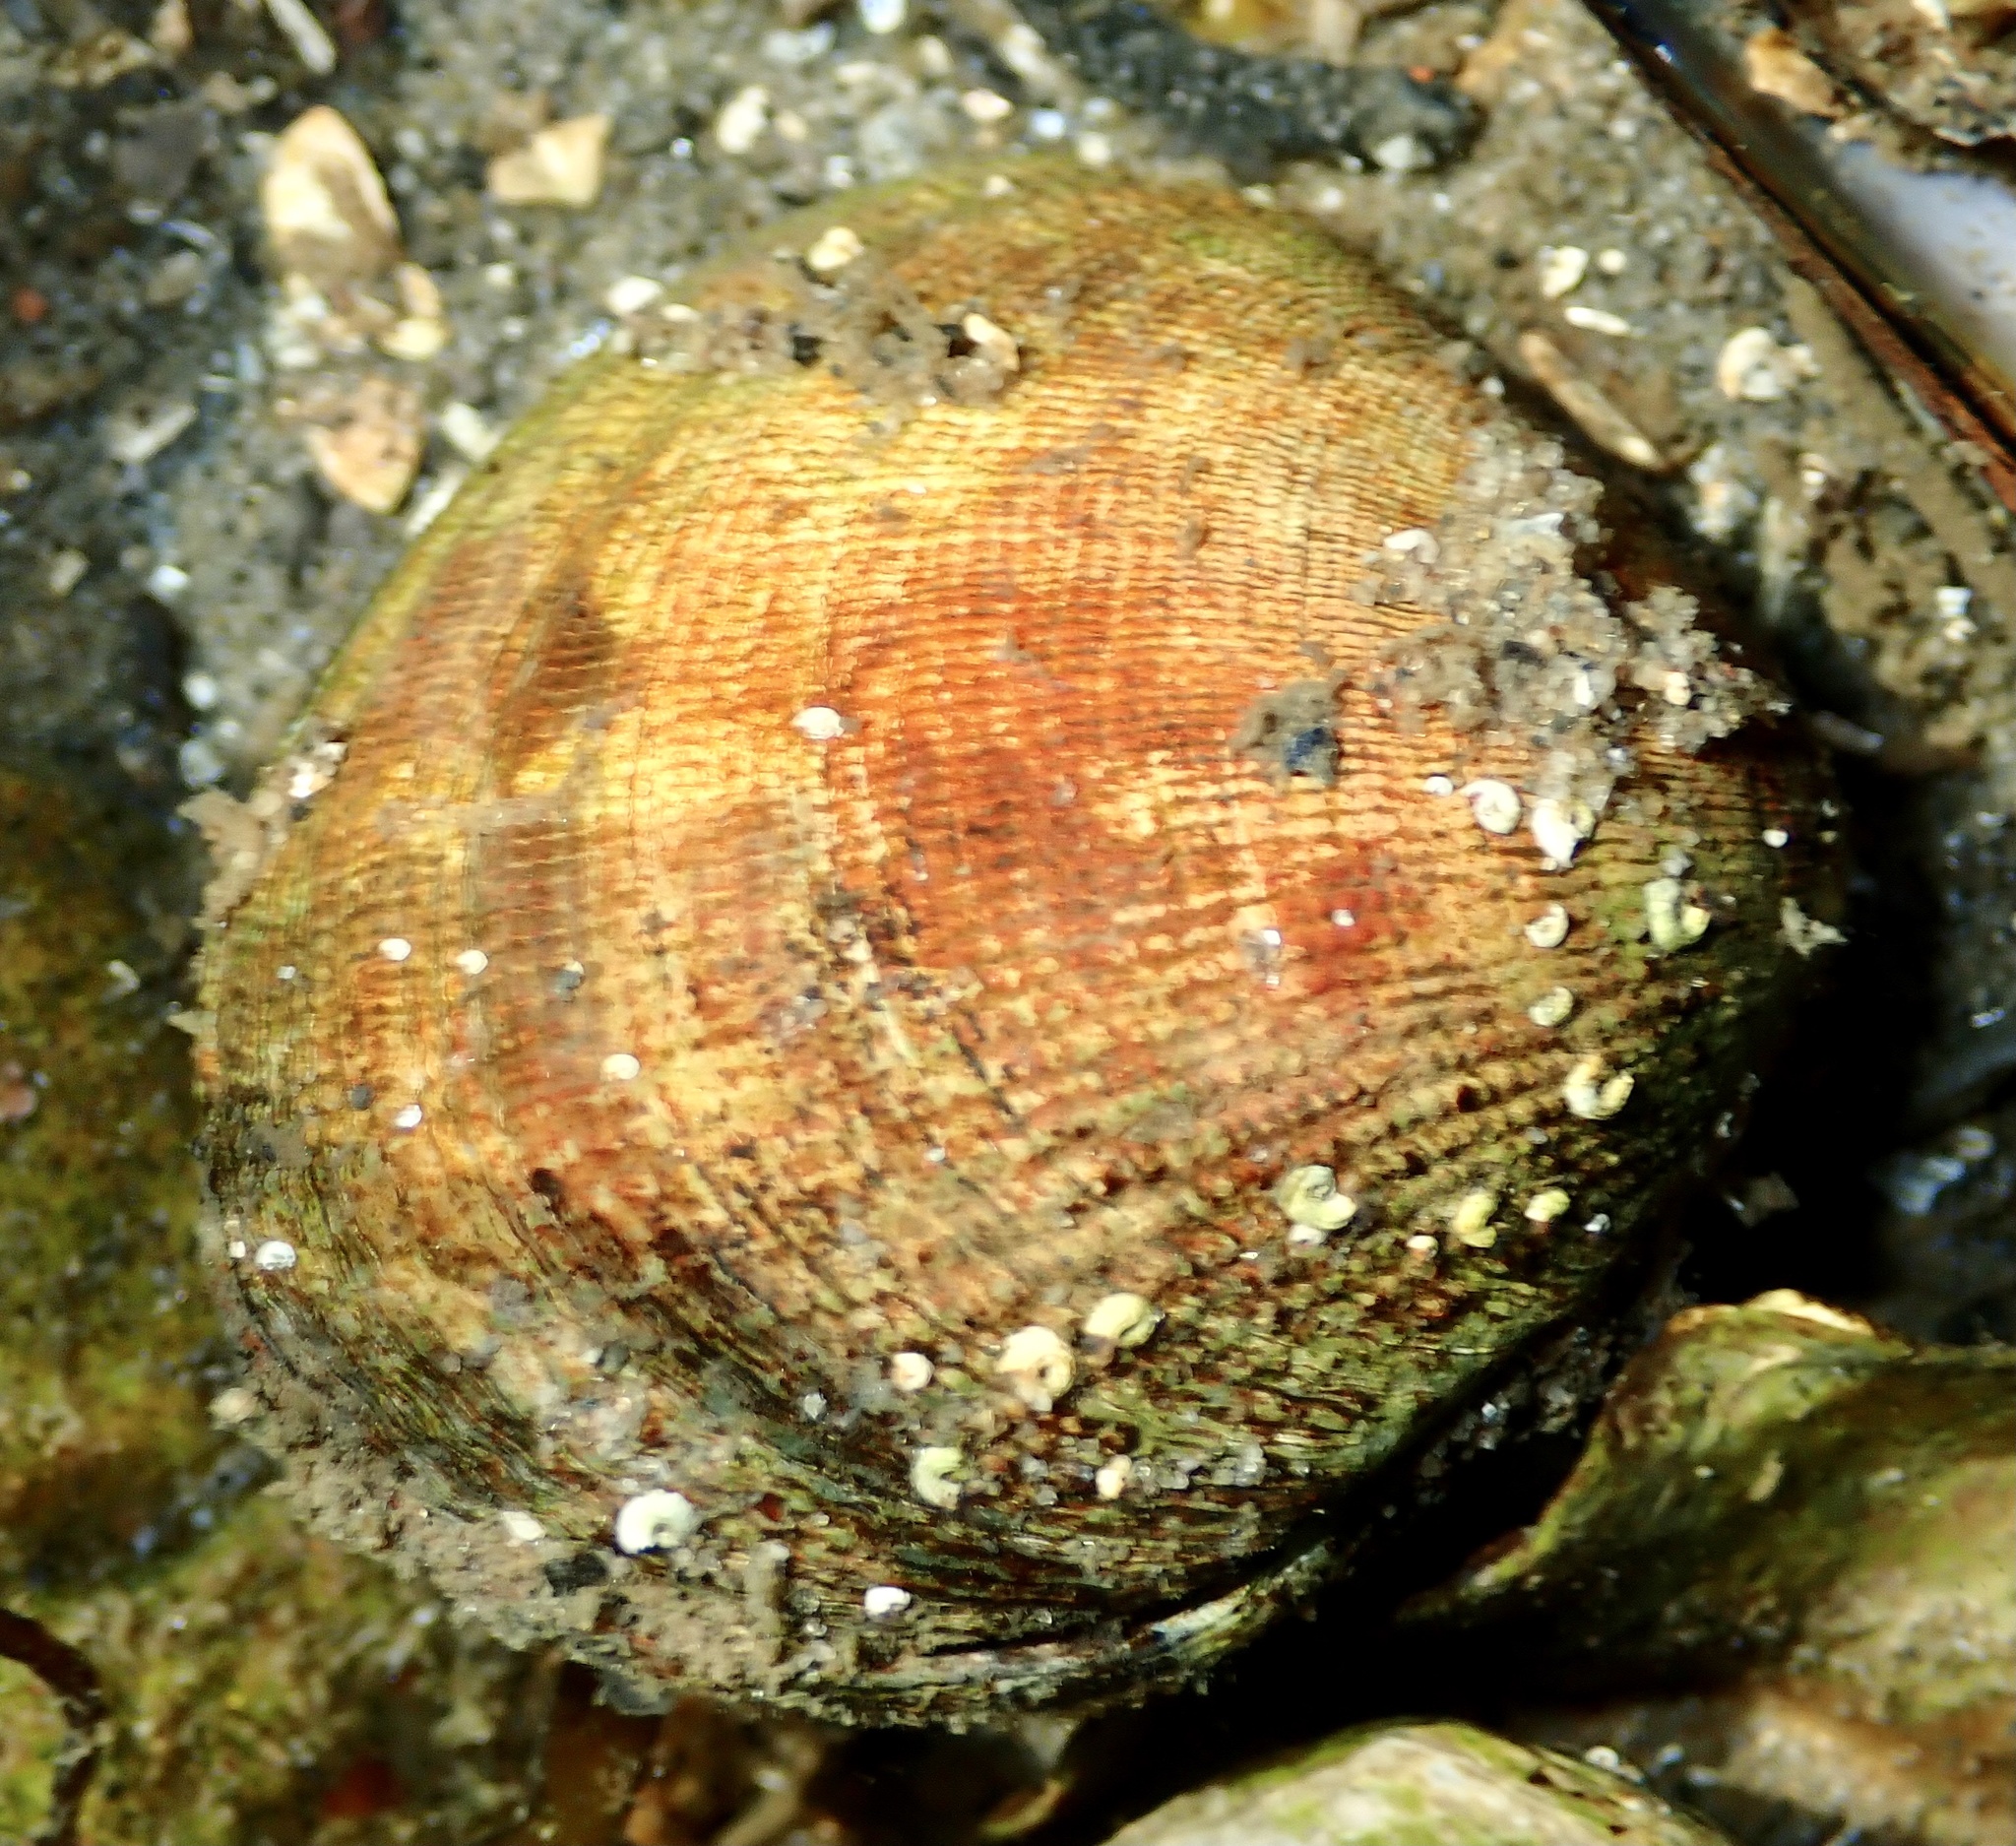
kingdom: Animalia
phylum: Mollusca
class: Bivalvia
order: Venerida
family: Veneridae
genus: Ruditapes
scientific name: Ruditapes philippinarum
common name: Manila clam
